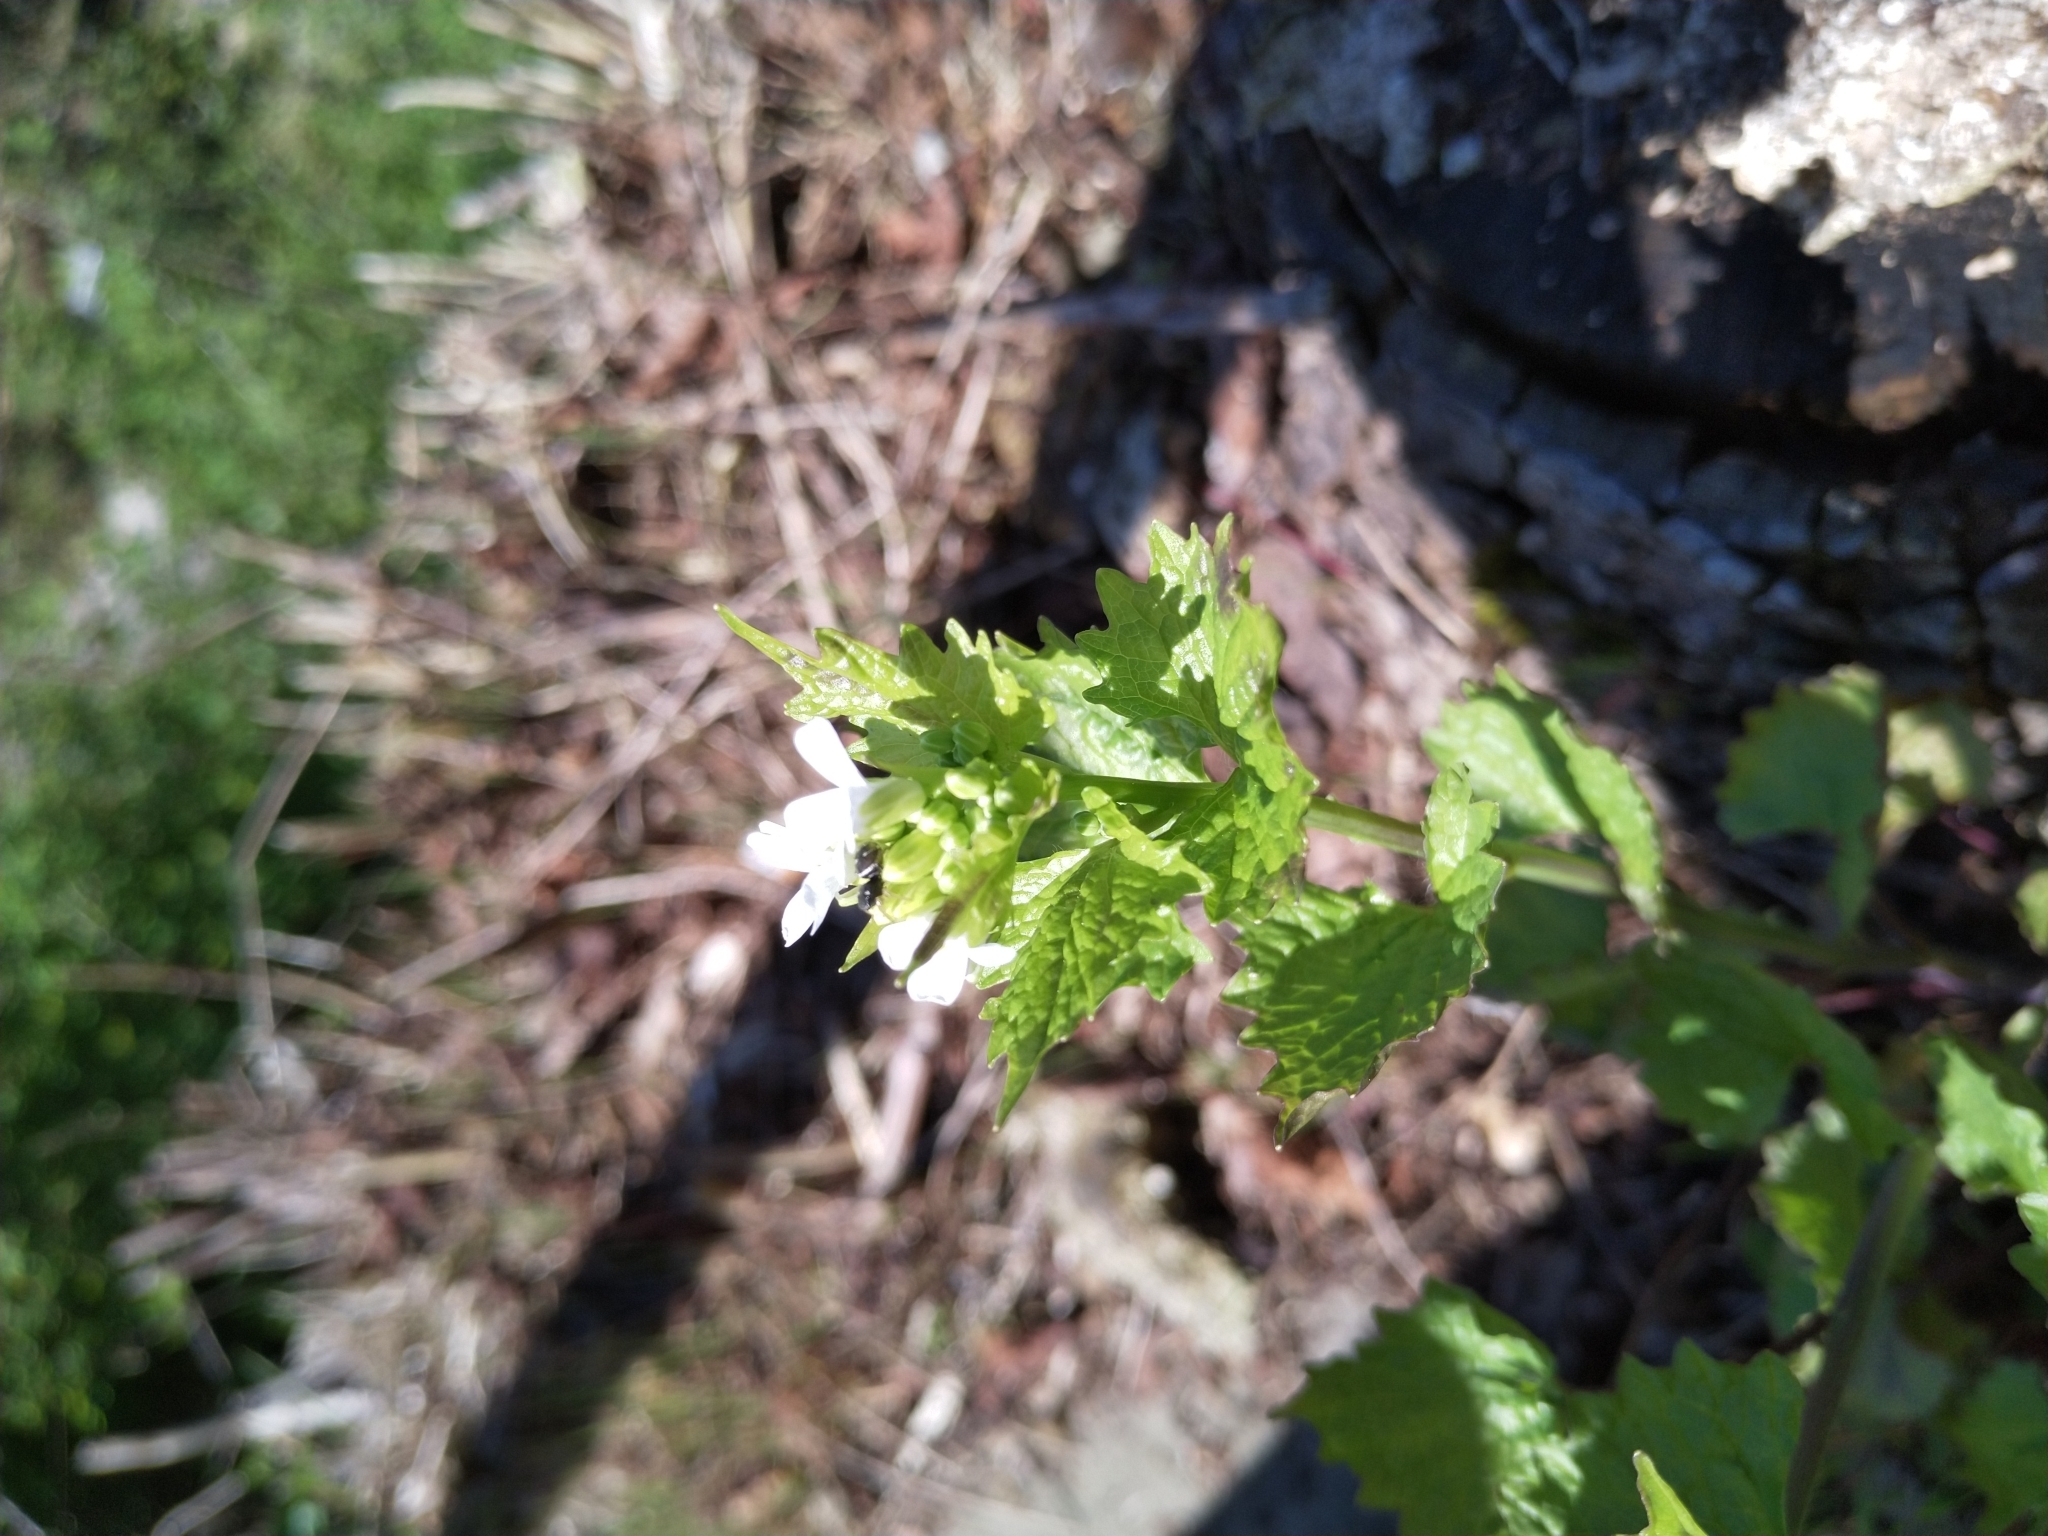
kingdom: Plantae
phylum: Tracheophyta
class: Magnoliopsida
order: Brassicales
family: Brassicaceae
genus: Alliaria
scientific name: Alliaria petiolata
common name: Garlic mustard
